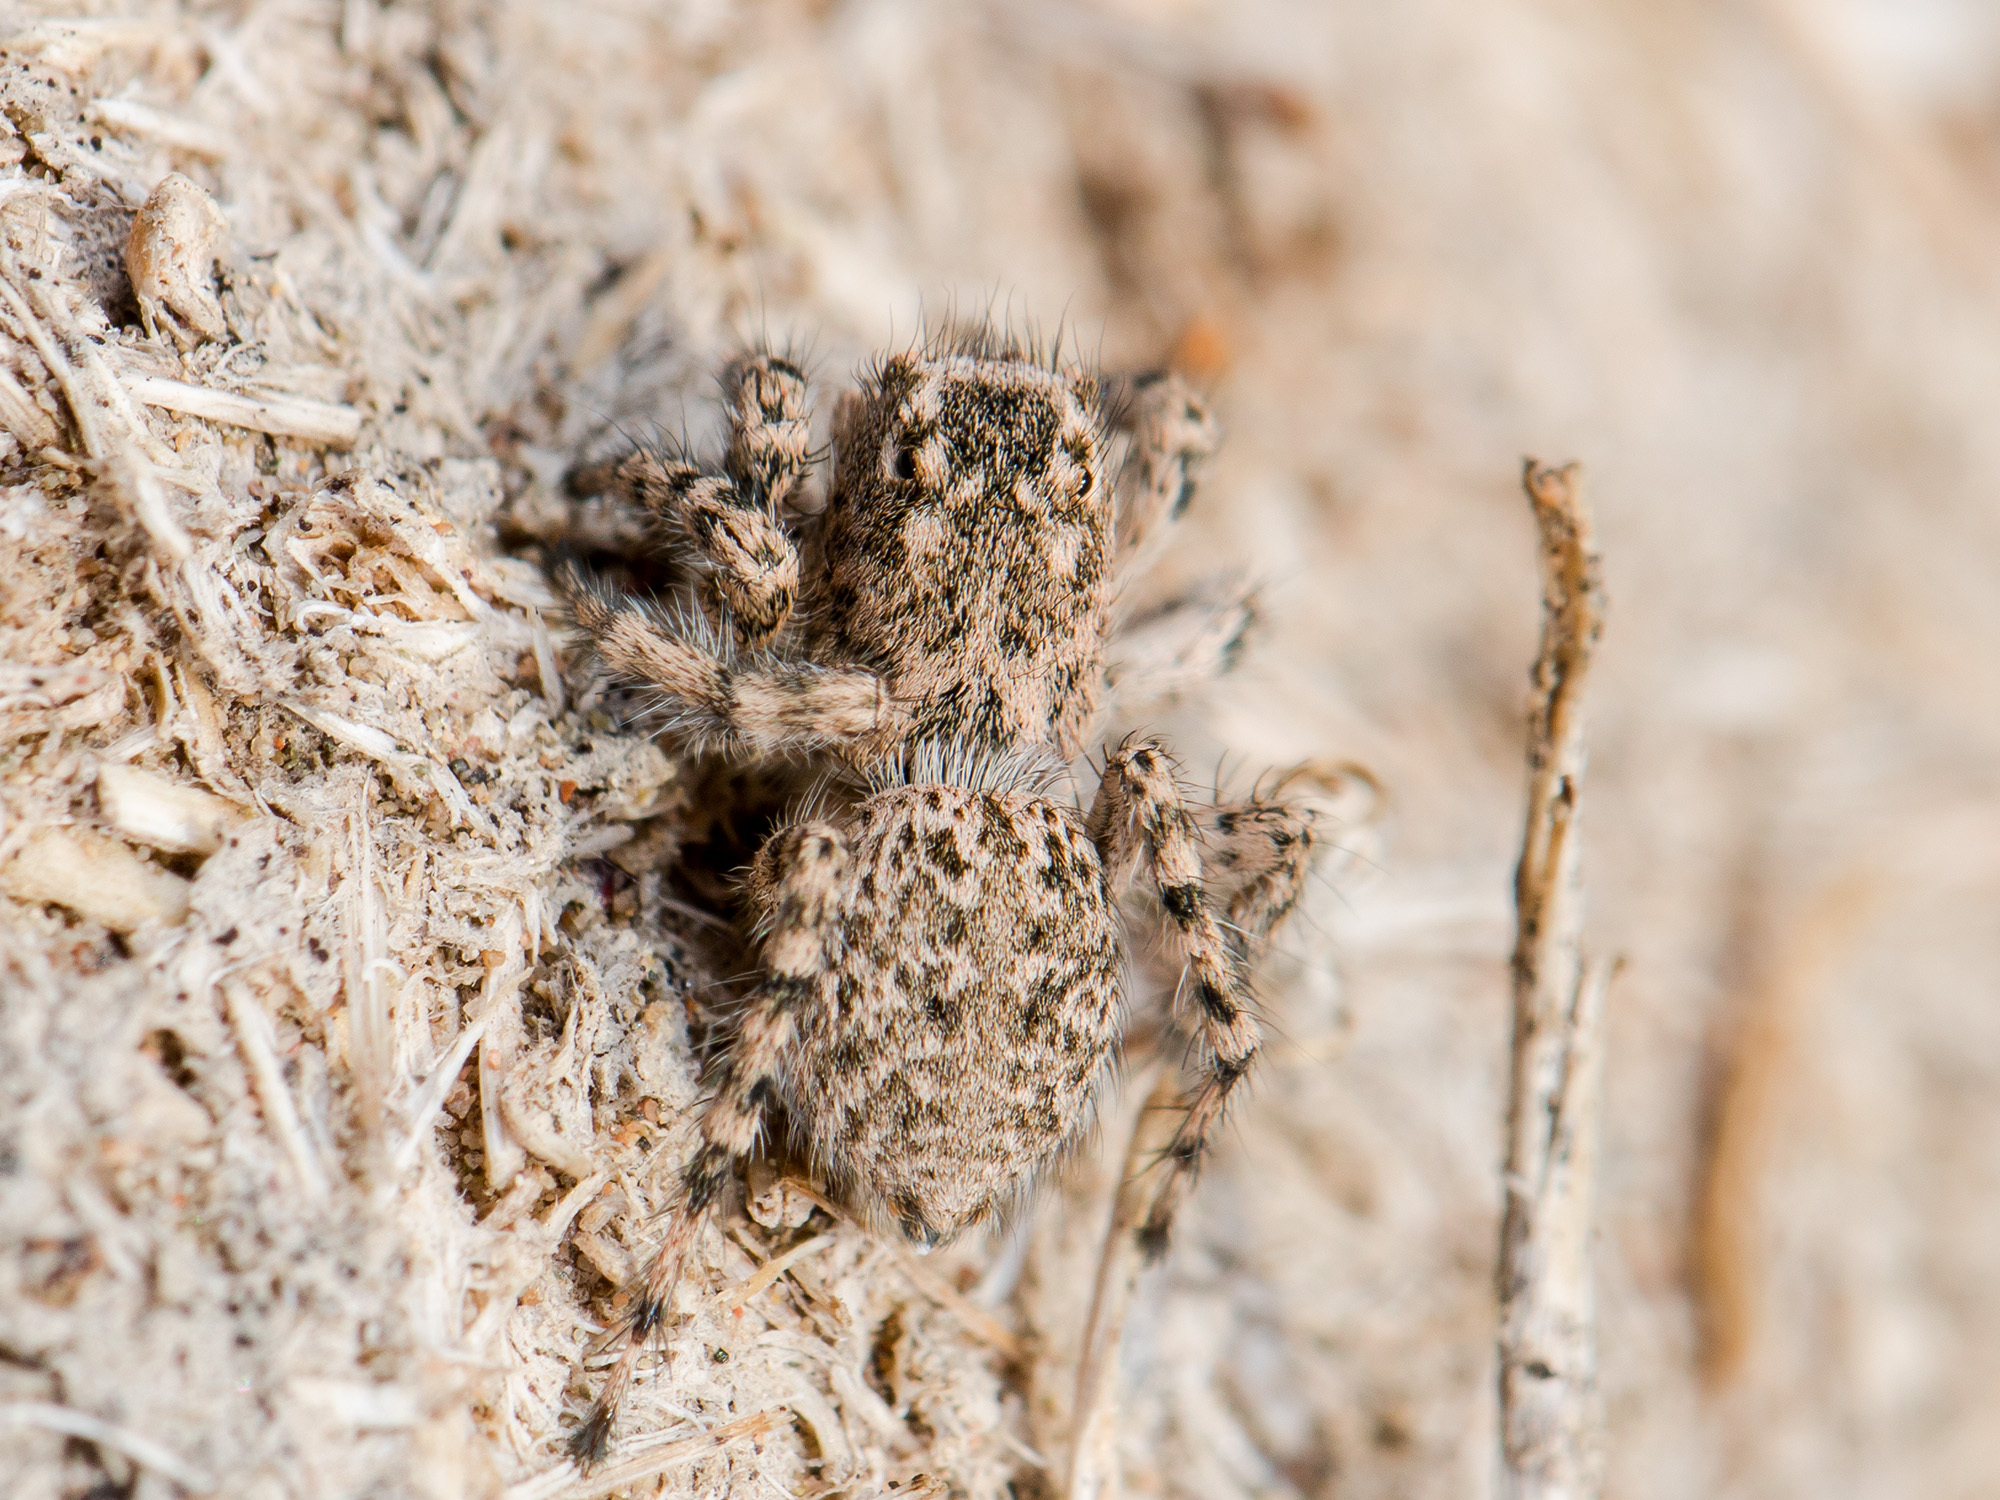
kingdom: Animalia
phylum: Arthropoda
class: Arachnida
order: Araneae
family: Salticidae
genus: Aelurillus
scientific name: Aelurillus dubatolovi
